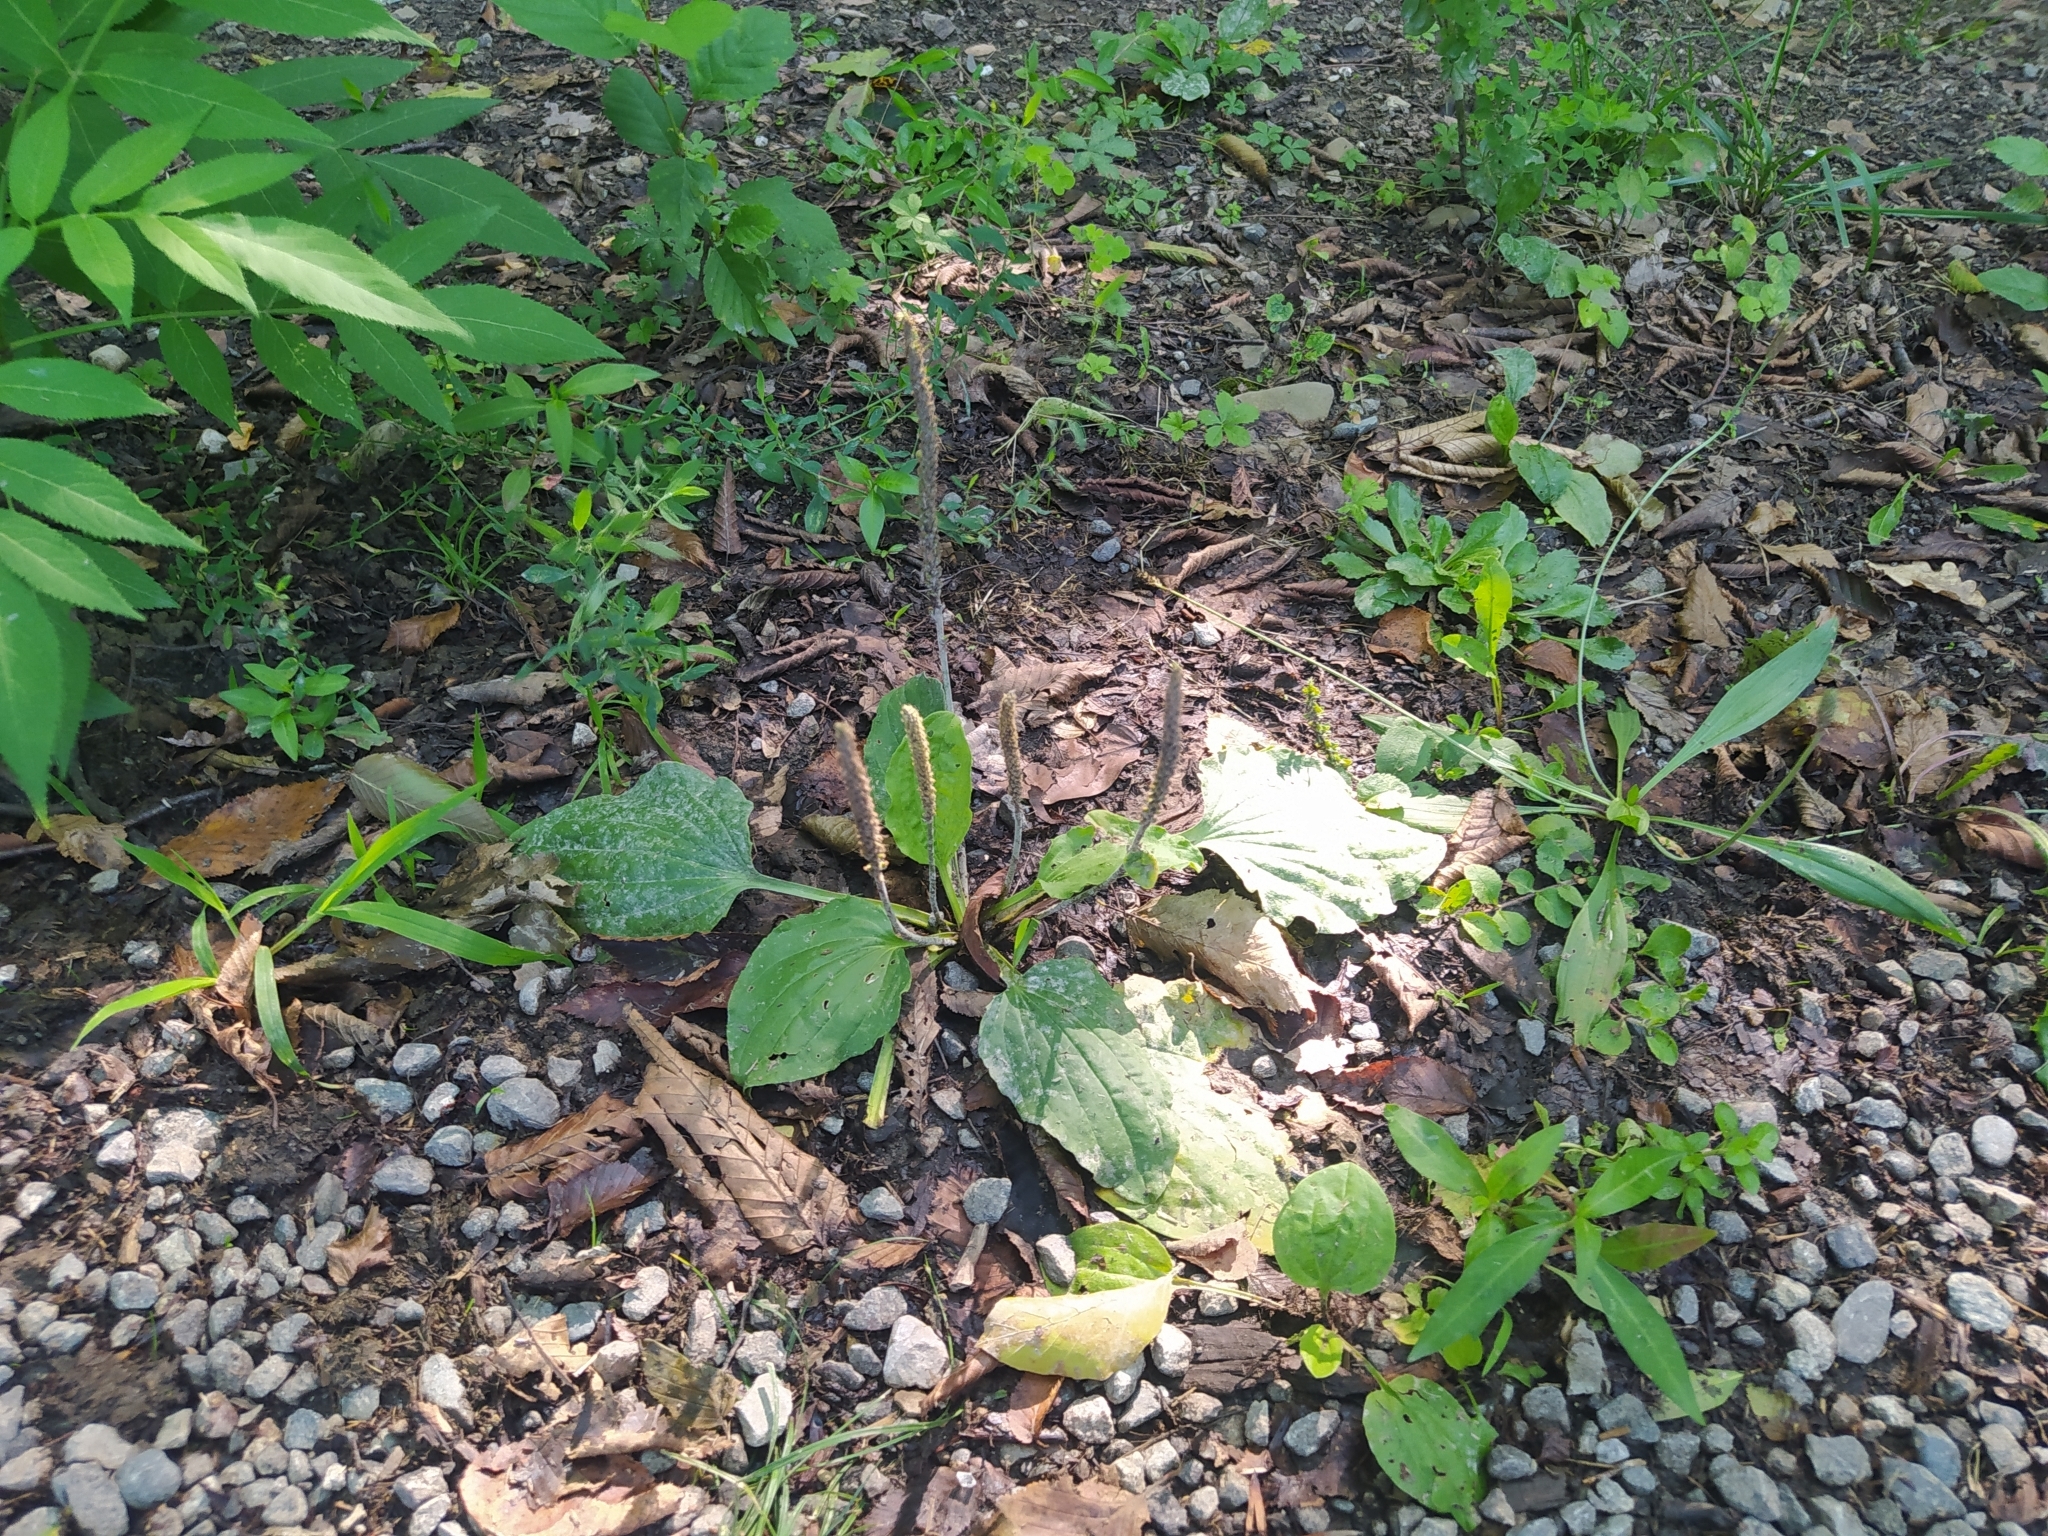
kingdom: Plantae
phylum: Tracheophyta
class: Magnoliopsida
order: Lamiales
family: Plantaginaceae
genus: Plantago
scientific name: Plantago major
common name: Common plantain
